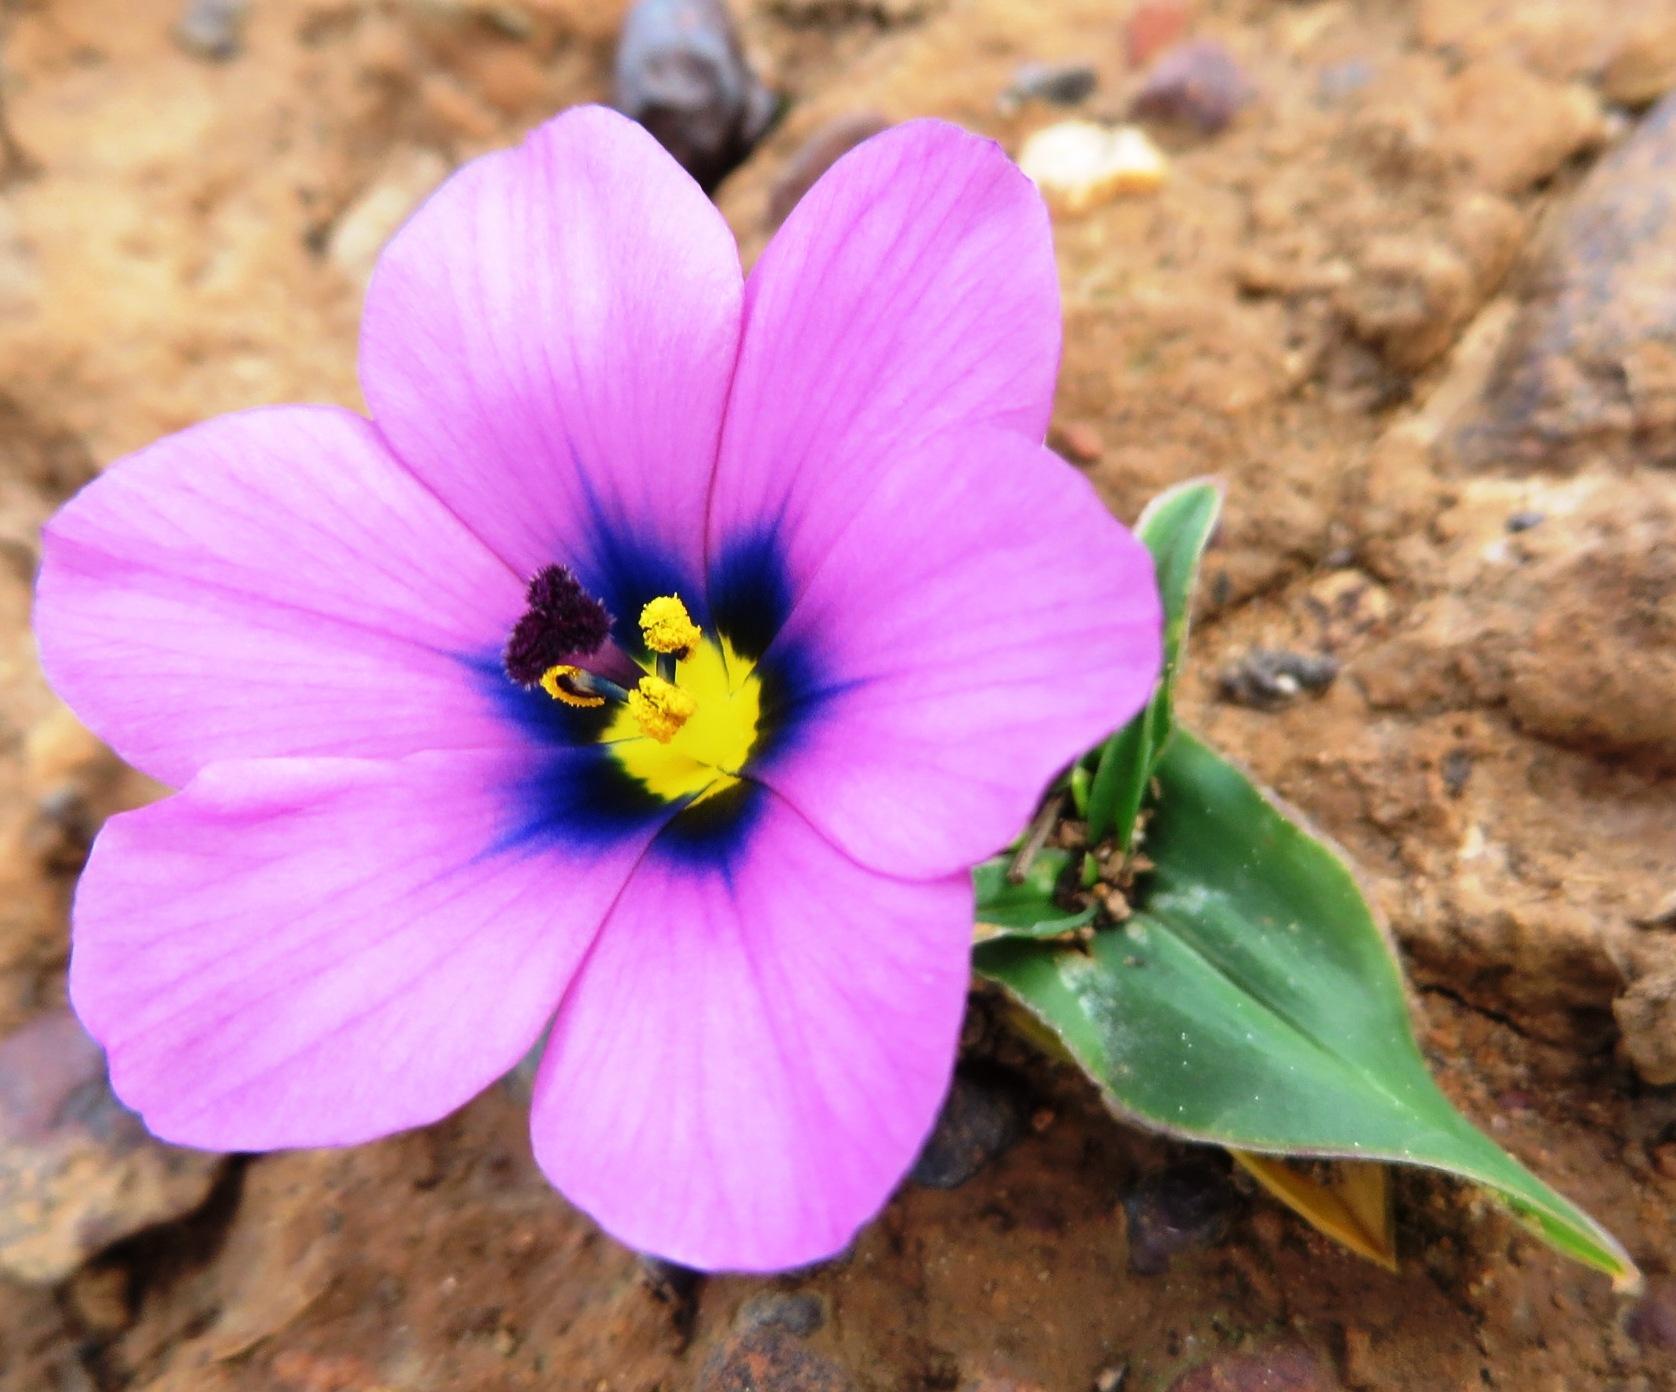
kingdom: Plantae
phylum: Tracheophyta
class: Liliopsida
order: Asparagales
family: Iridaceae
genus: Moraea
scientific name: Moraea versicolor
